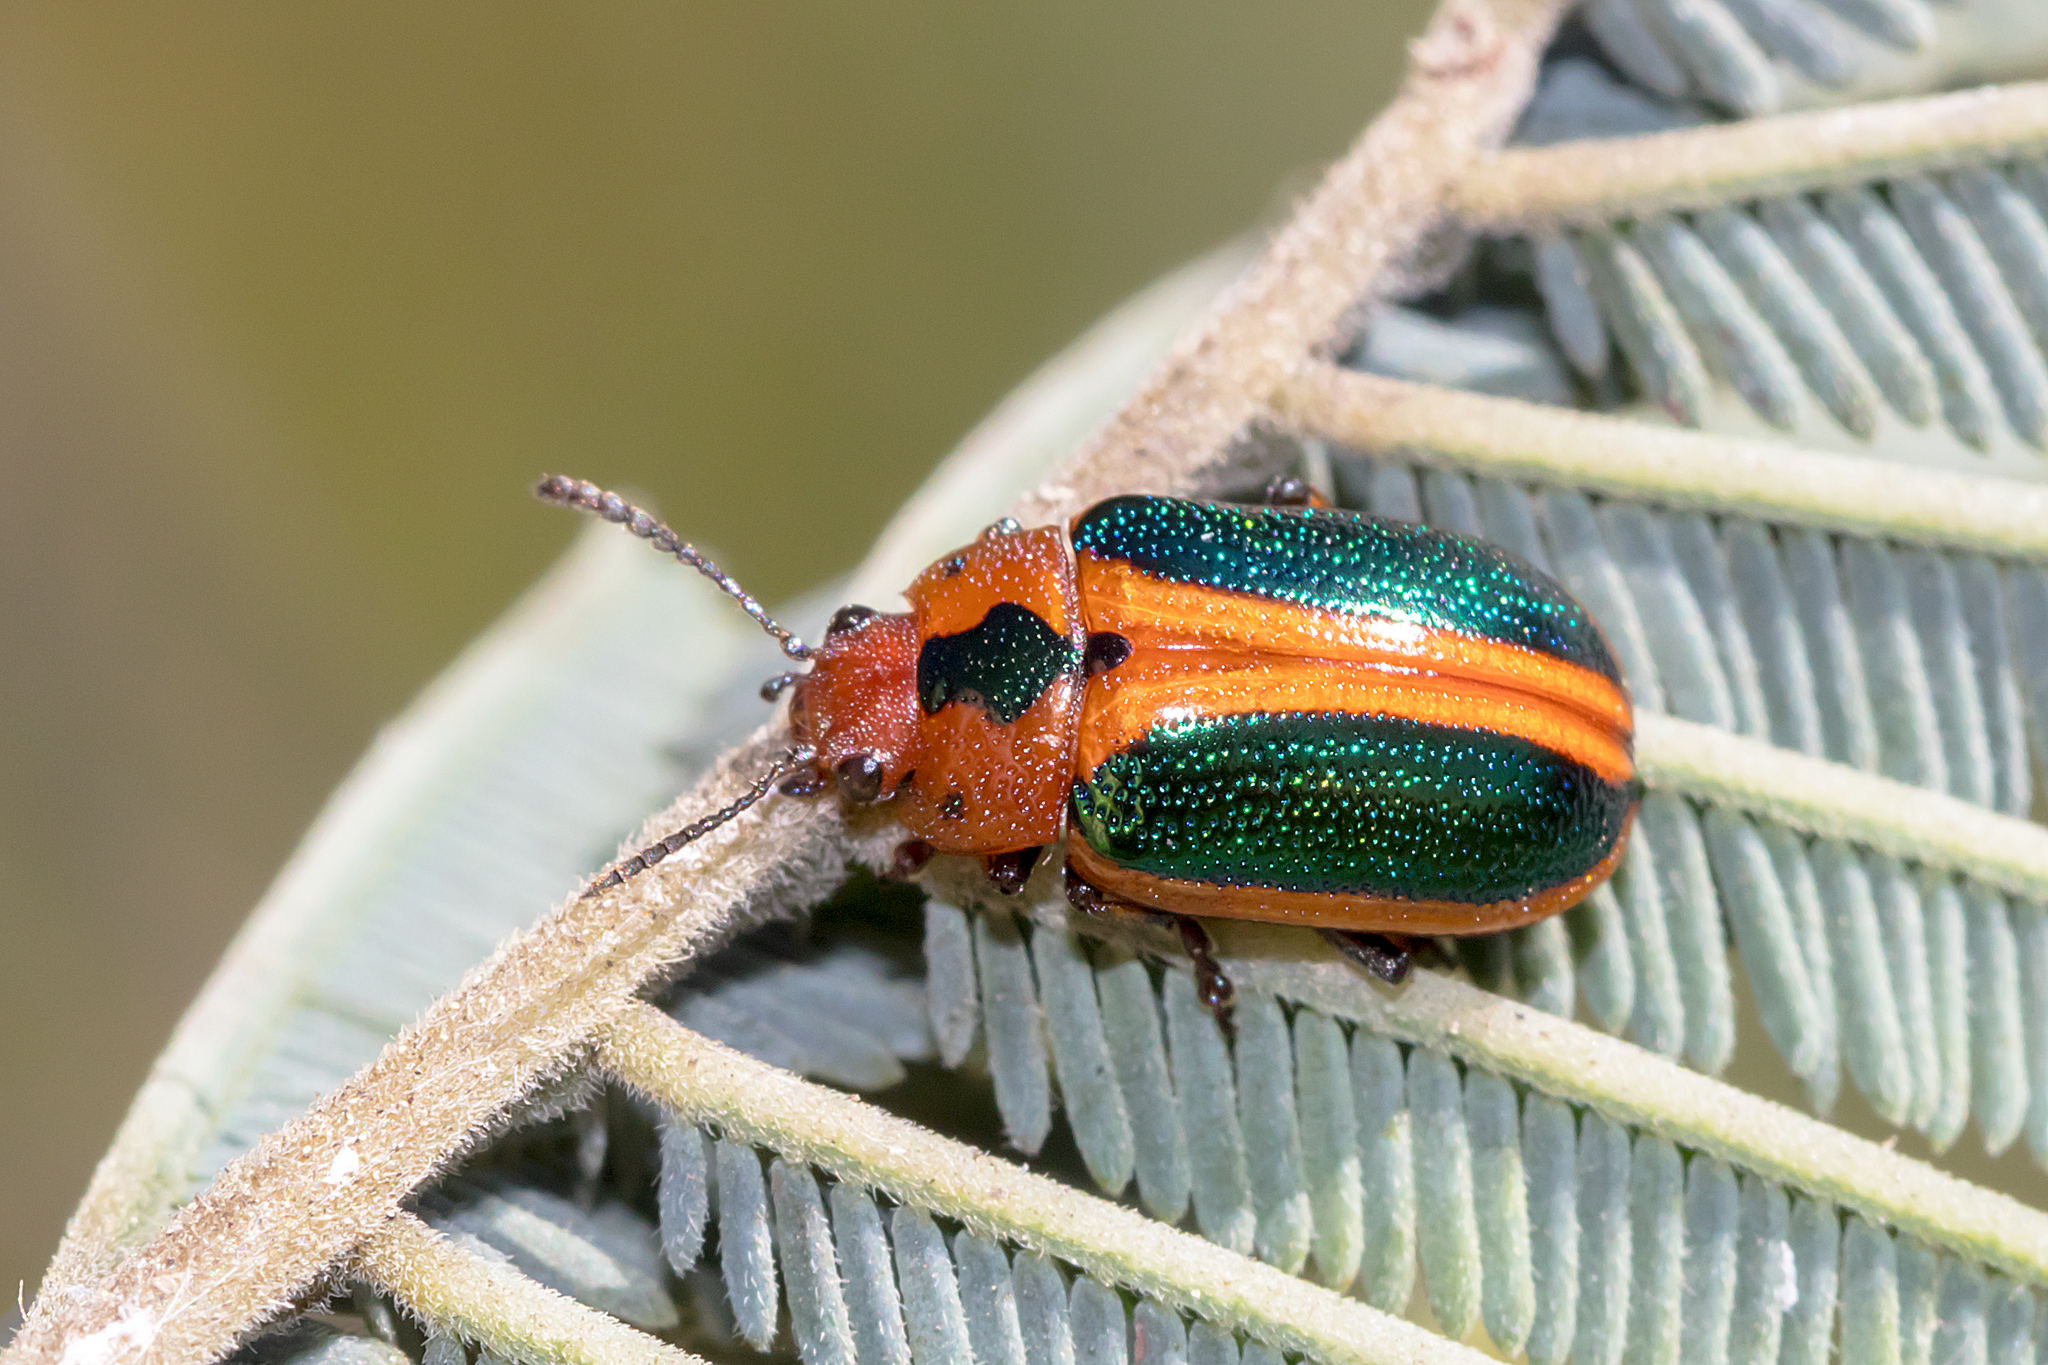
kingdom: Animalia
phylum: Arthropoda
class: Insecta
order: Coleoptera
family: Chrysomelidae
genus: Calomela
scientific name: Calomela
